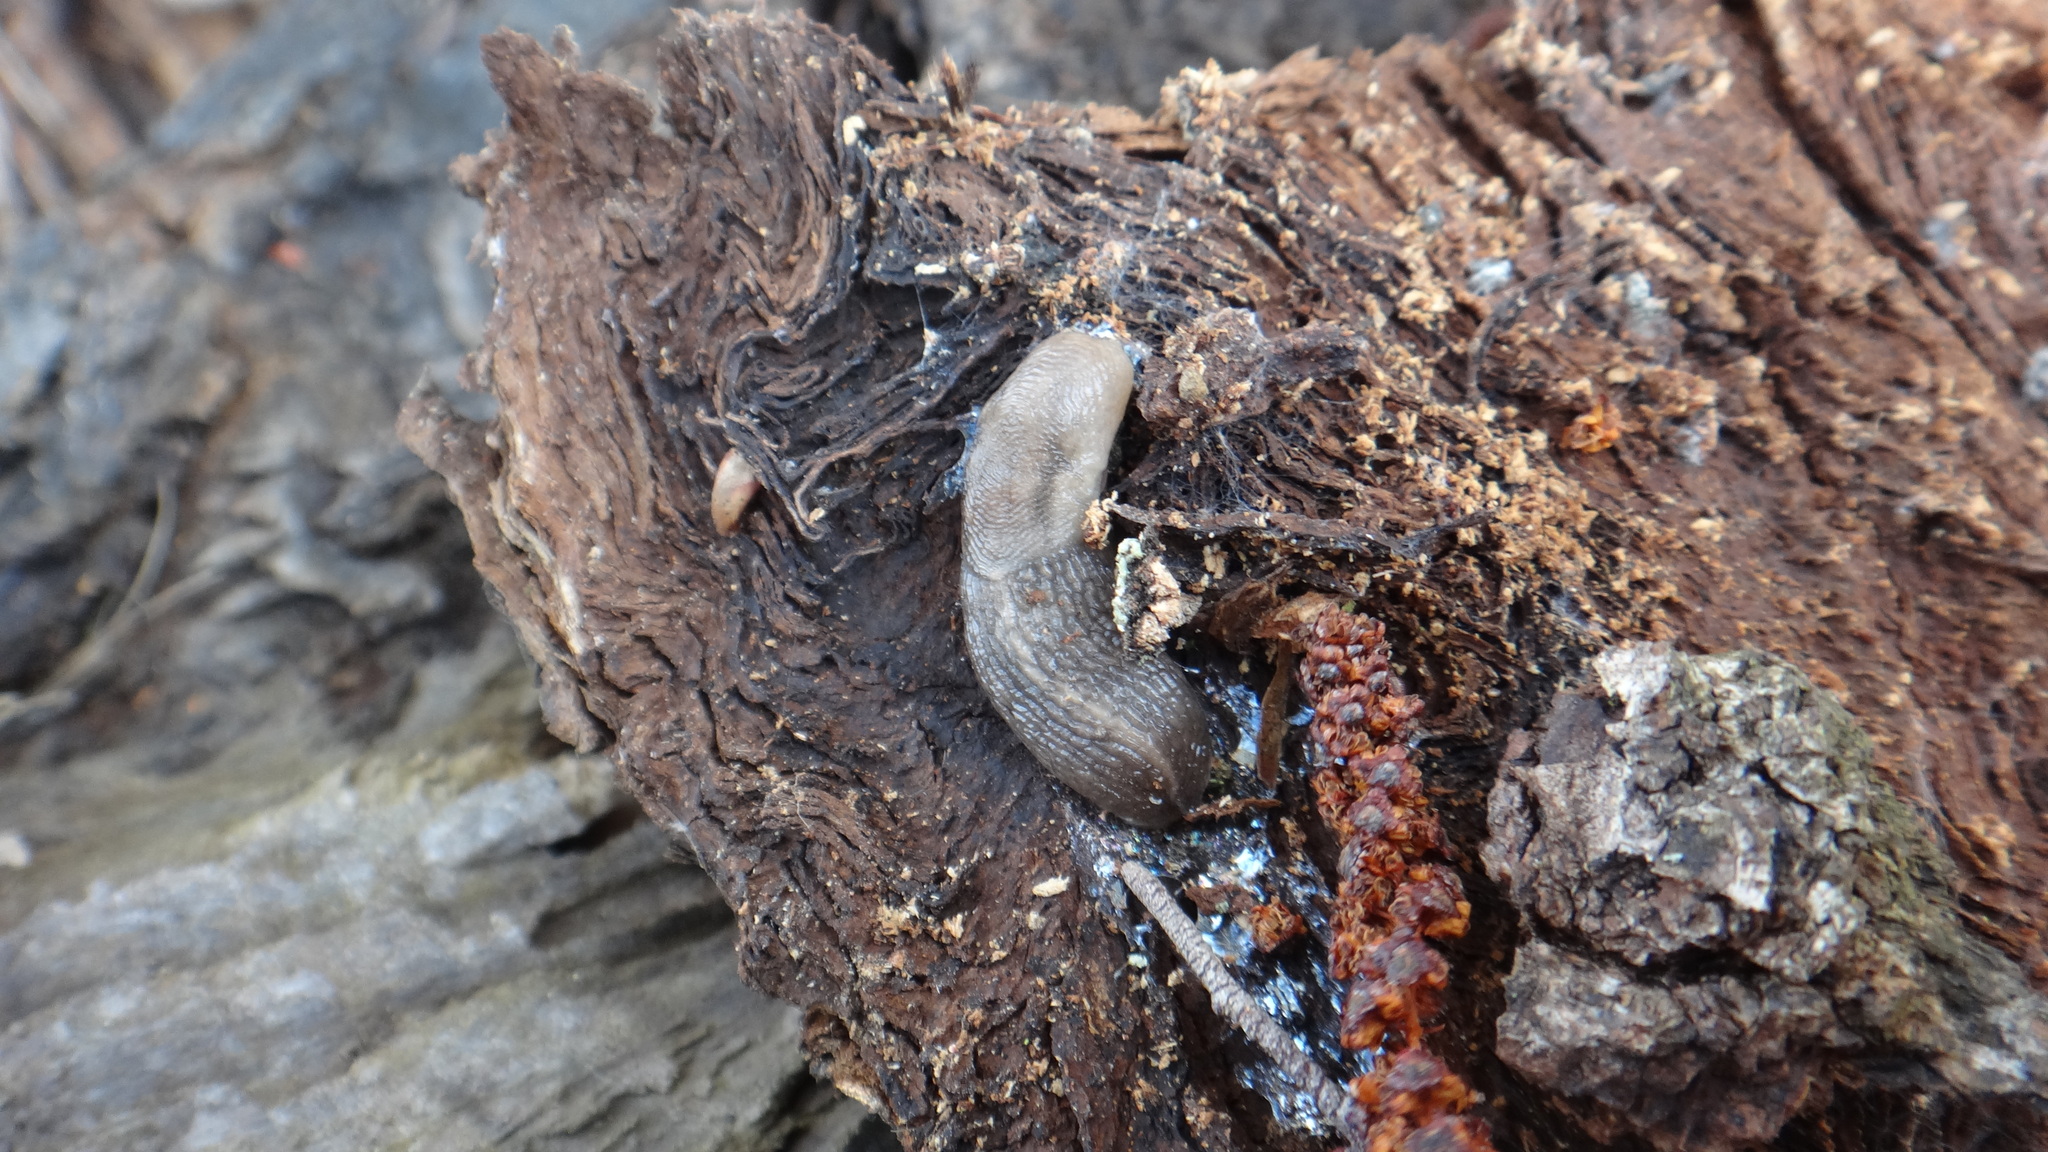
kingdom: Animalia
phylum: Mollusca
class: Gastropoda
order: Stylommatophora
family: Limacidae
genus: Lehmannia
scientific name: Lehmannia marginata
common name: Tree slug
